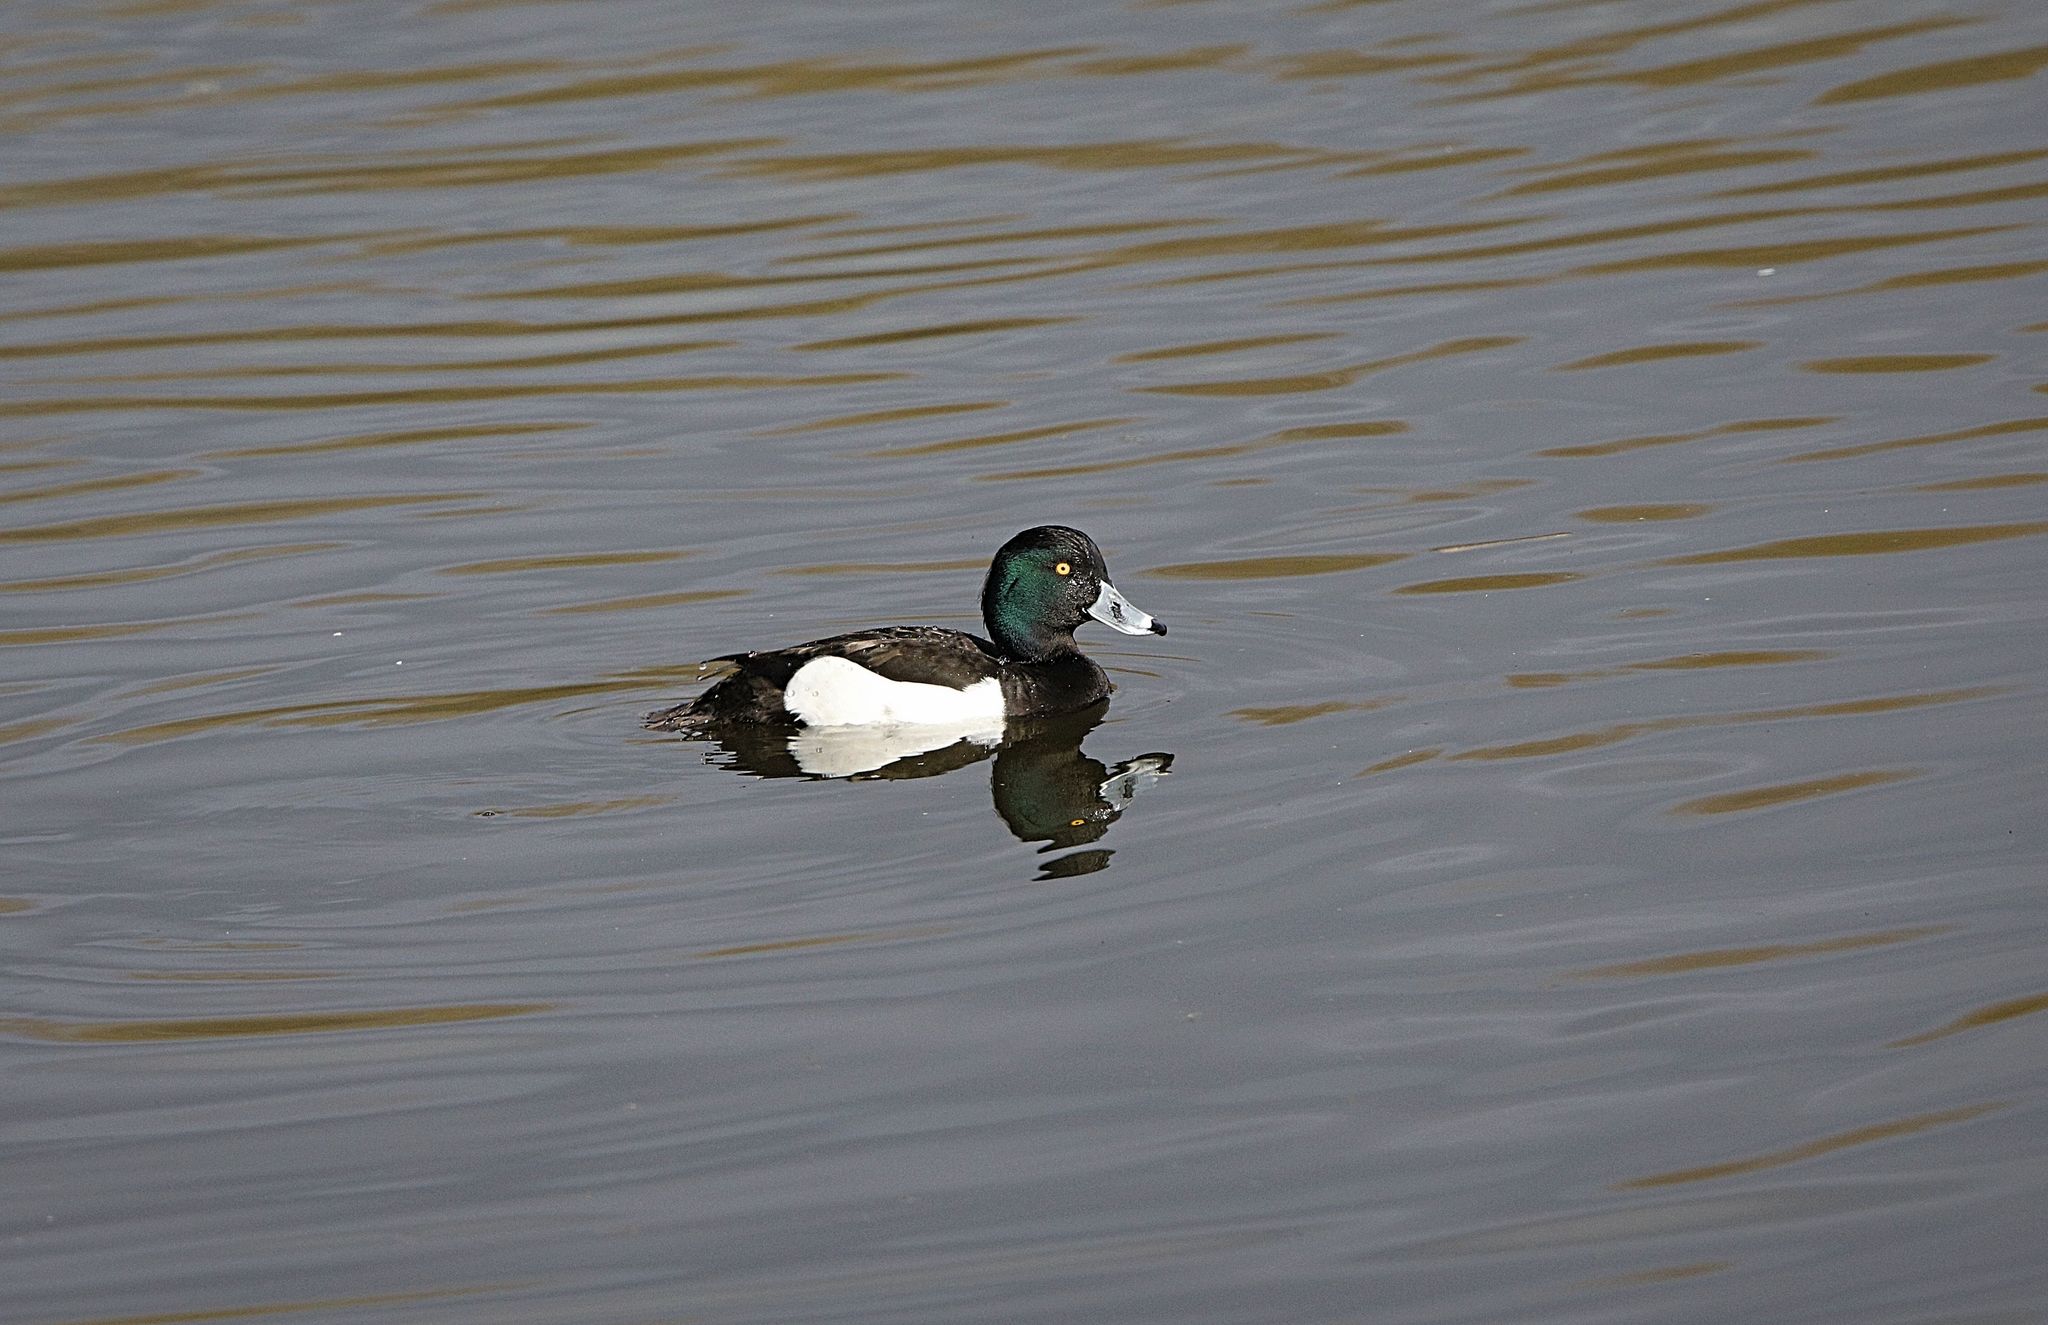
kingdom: Animalia
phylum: Chordata
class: Aves
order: Anseriformes
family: Anatidae
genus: Aythya
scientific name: Aythya fuligula
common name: Tufted duck
